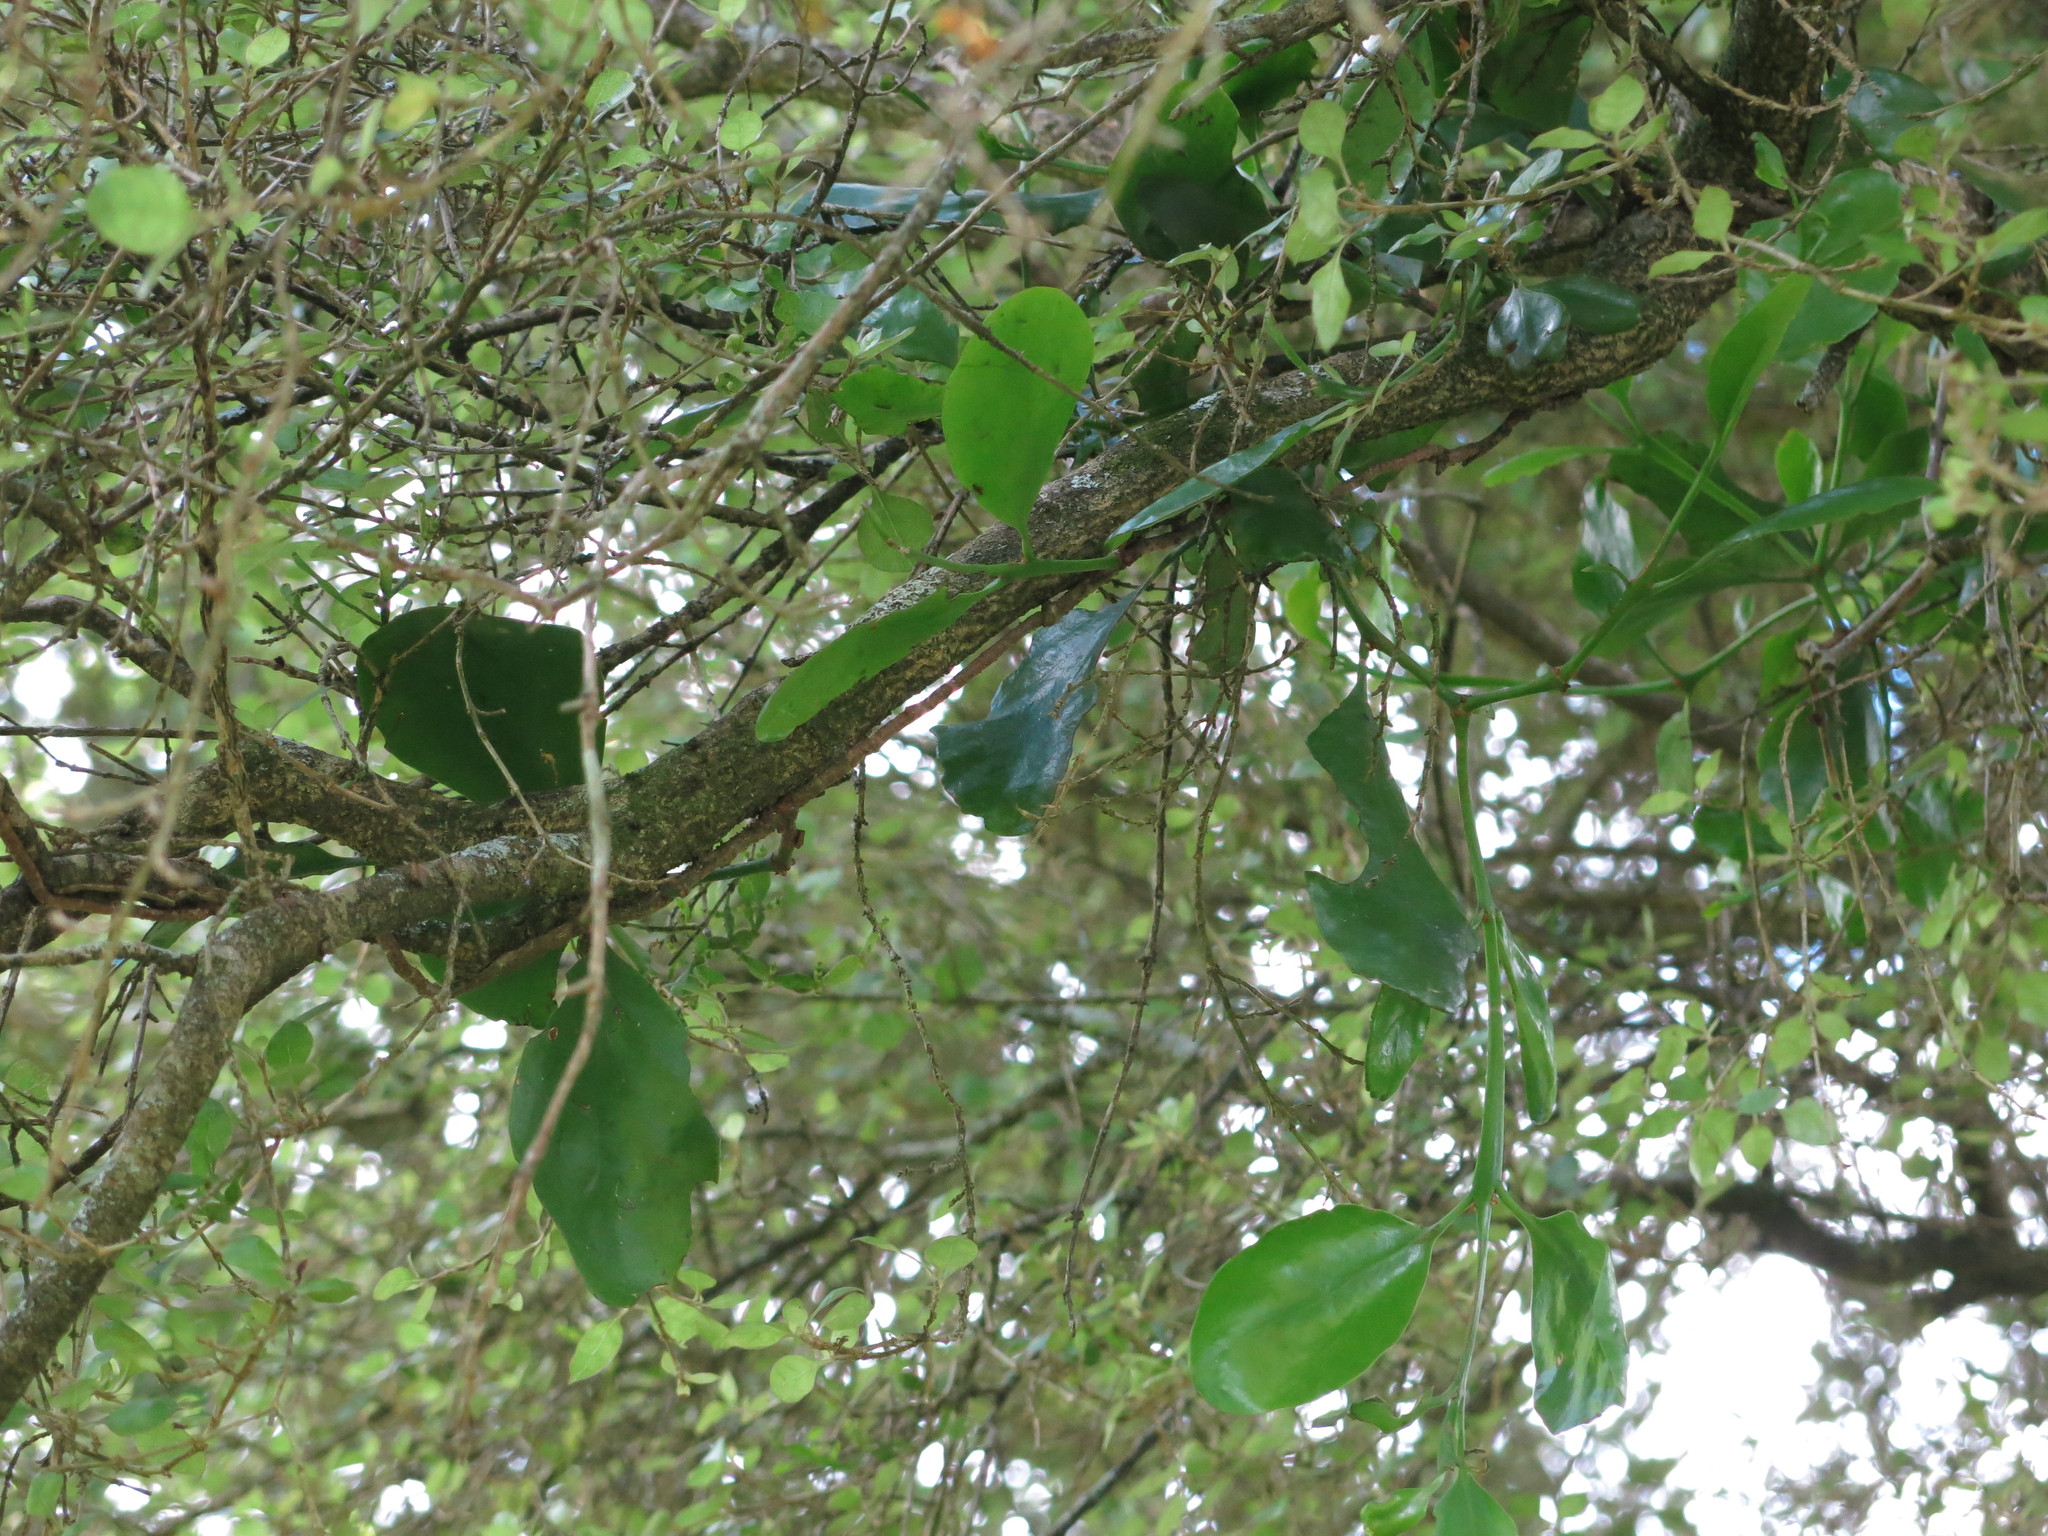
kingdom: Plantae
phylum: Tracheophyta
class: Magnoliopsida
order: Santalales
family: Loranthaceae
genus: Ileostylus
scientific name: Ileostylus micranthus
